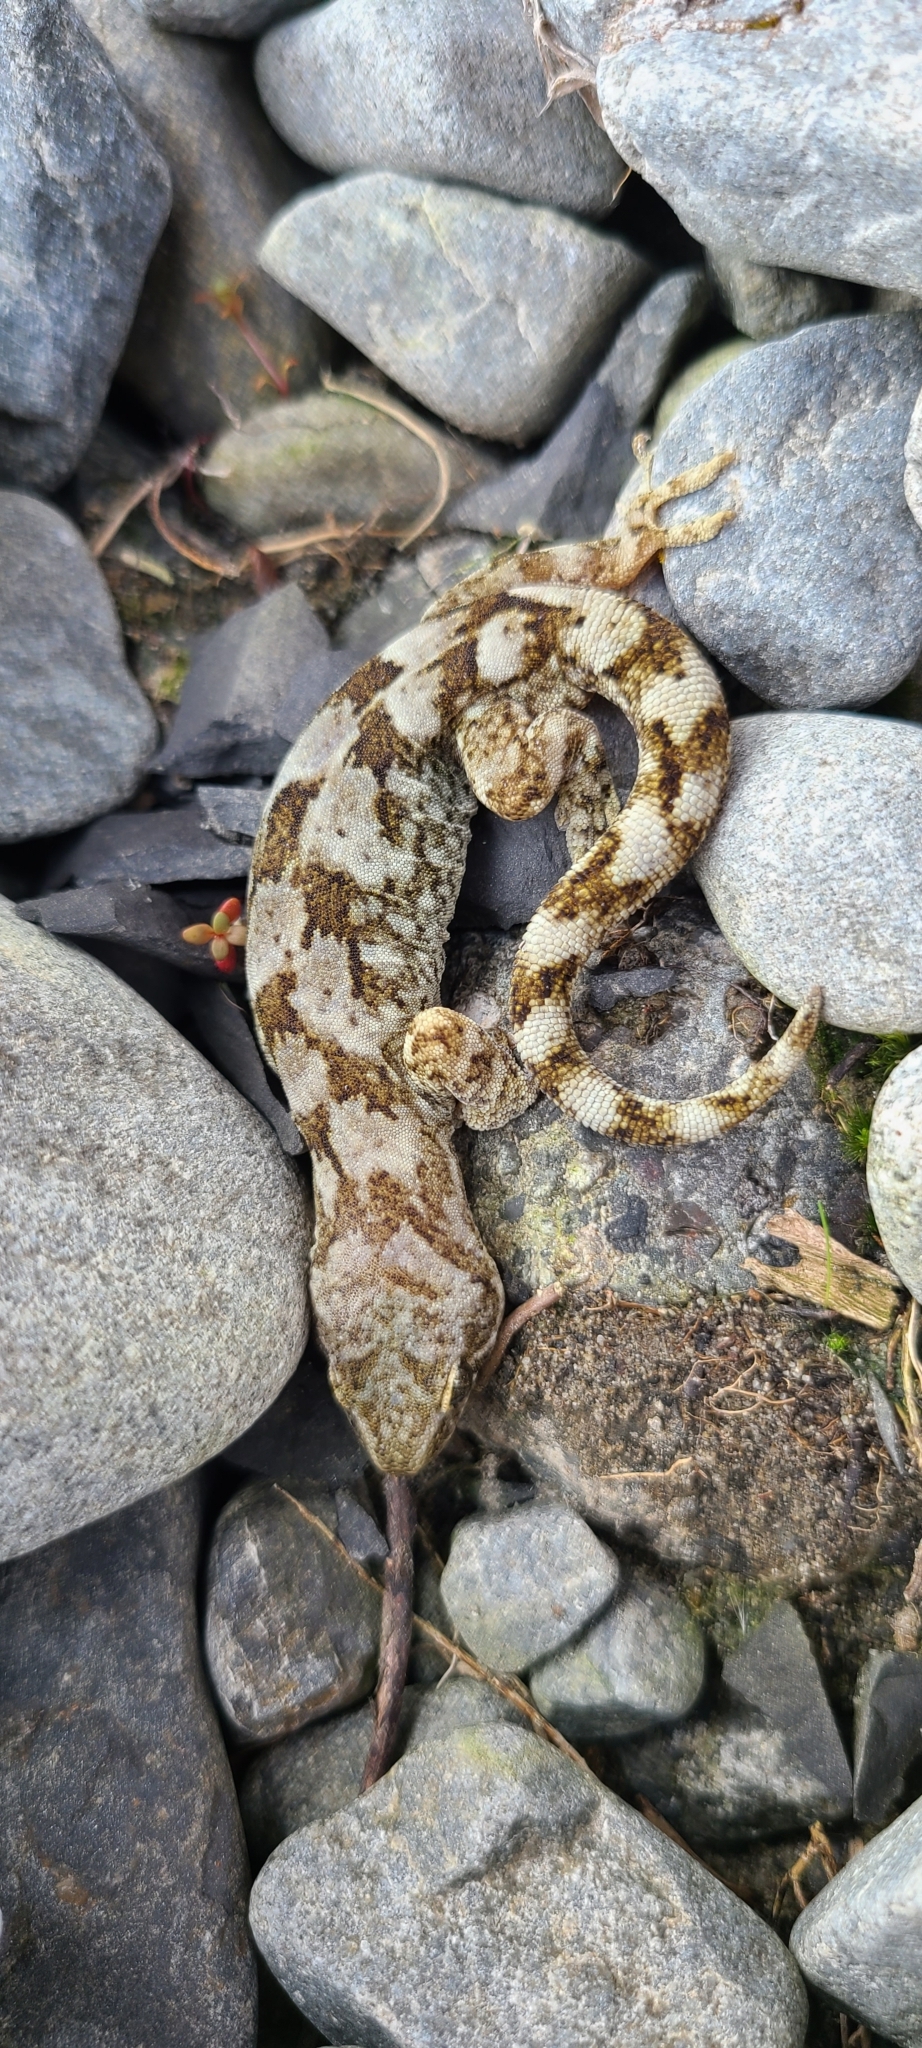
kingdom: Animalia
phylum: Chordata
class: Squamata
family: Diplodactylidae
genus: Woodworthia
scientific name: Woodworthia
